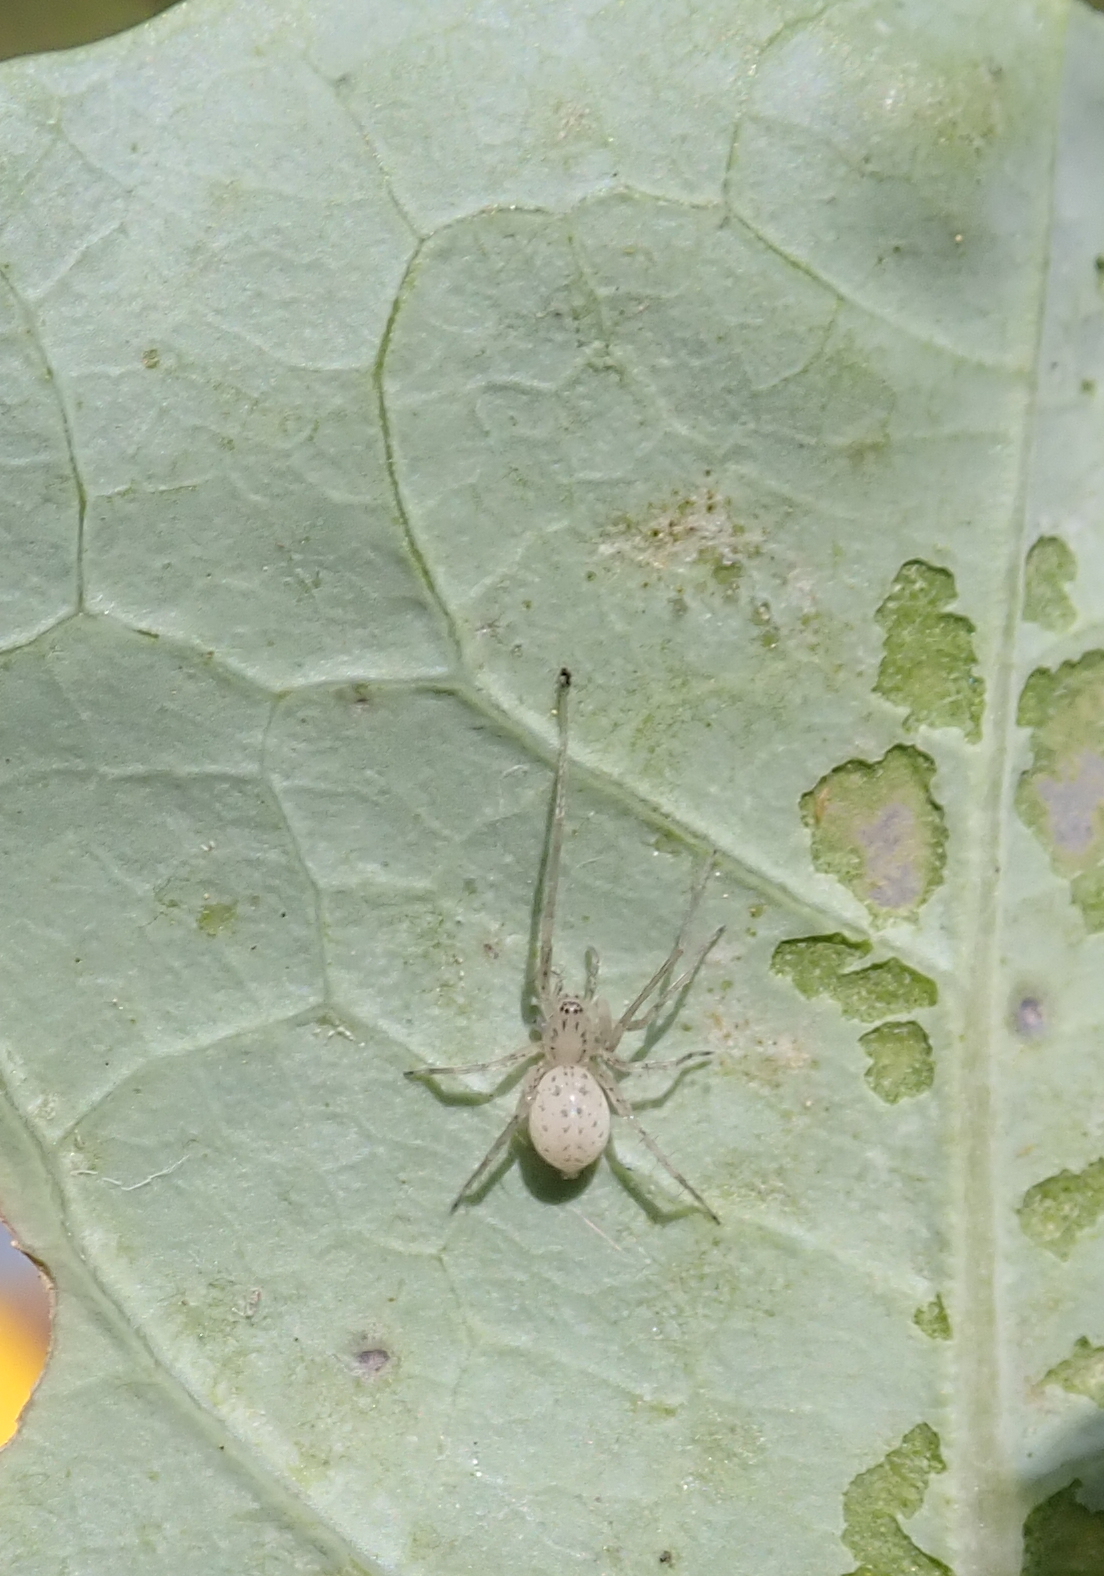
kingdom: Animalia
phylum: Arthropoda
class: Arachnida
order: Araneae
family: Anyphaenidae
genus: Wulfila
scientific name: Wulfila saltabundus
